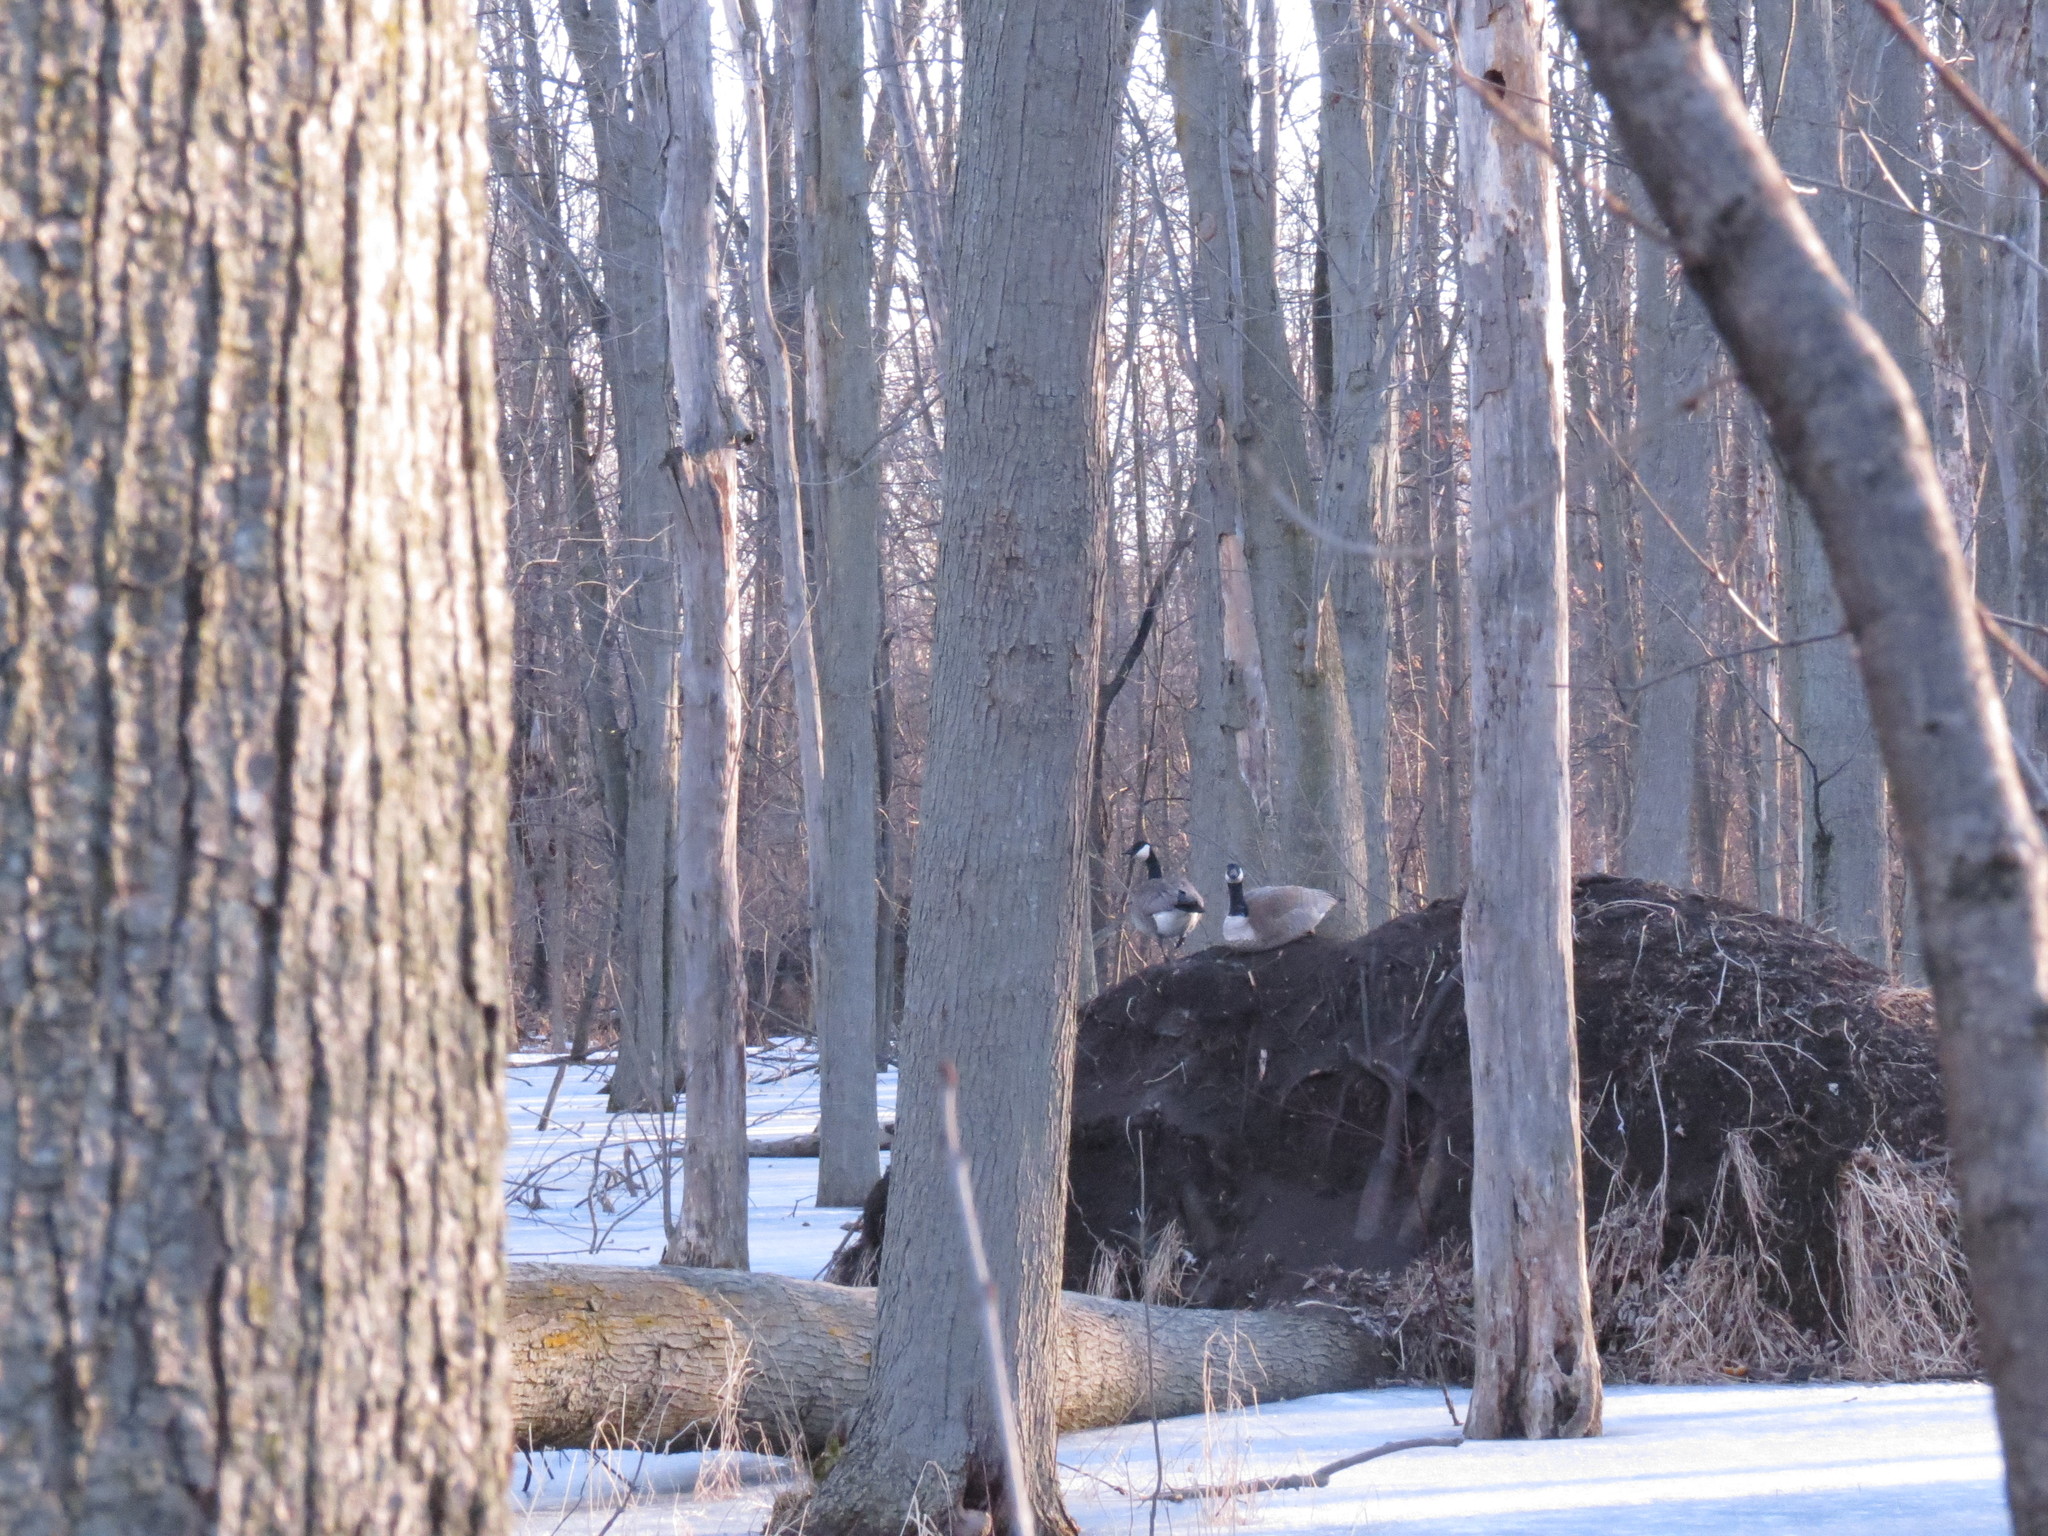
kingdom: Animalia
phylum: Chordata
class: Aves
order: Anseriformes
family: Anatidae
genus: Branta
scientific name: Branta canadensis
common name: Canada goose
